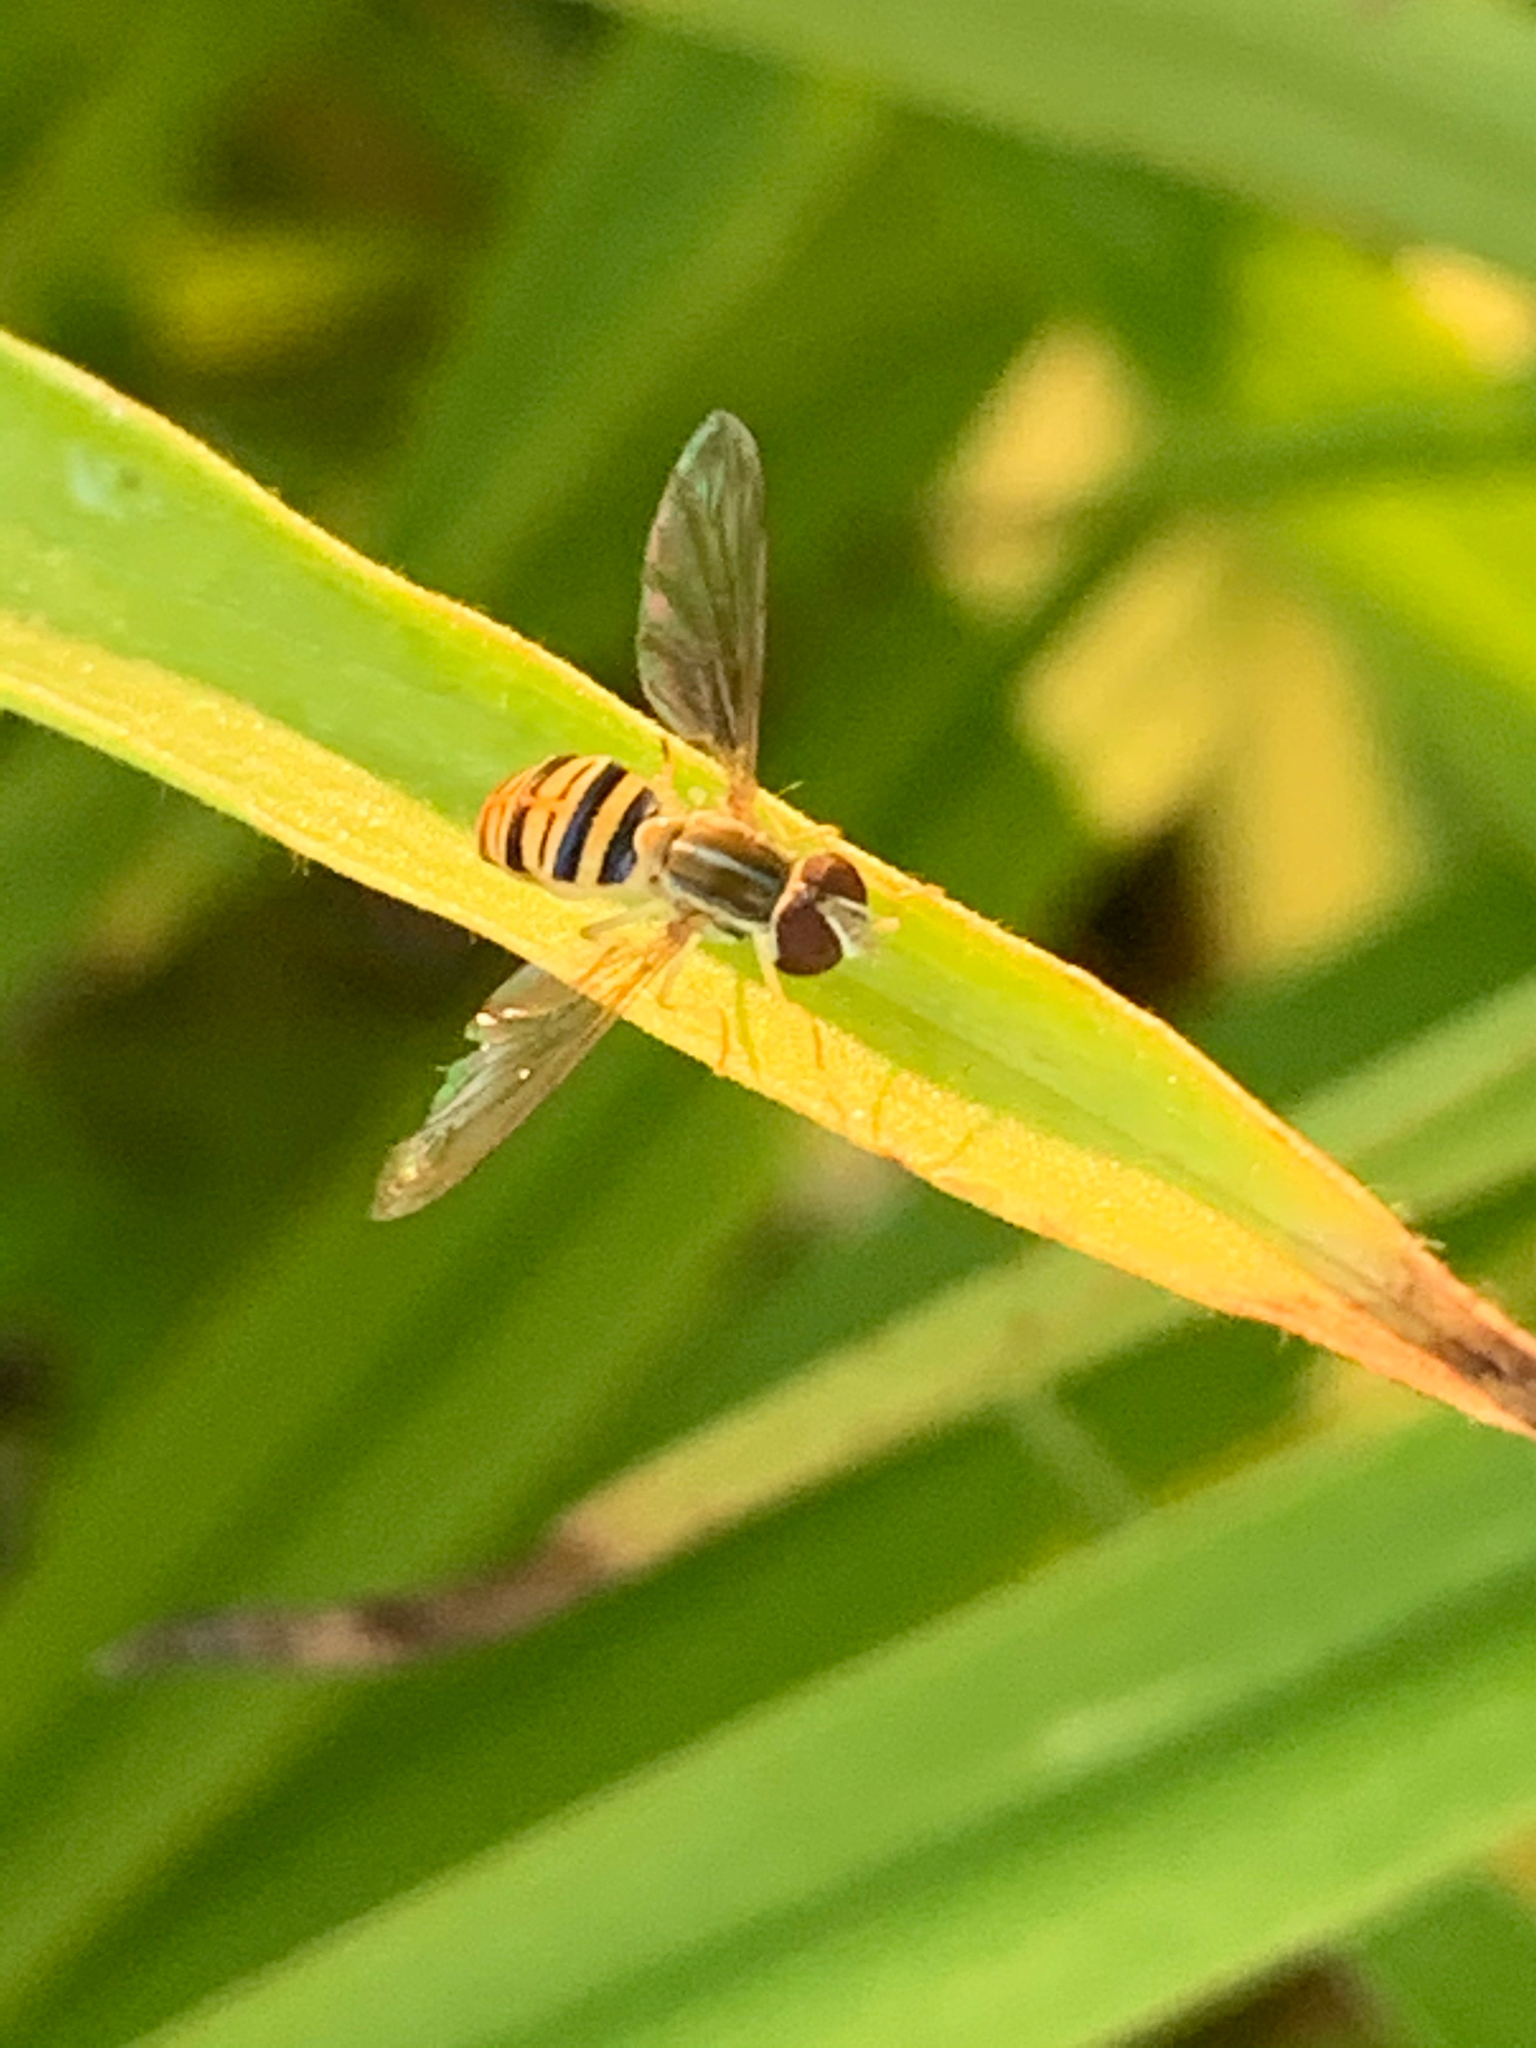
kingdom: Animalia
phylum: Arthropoda
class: Insecta
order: Diptera
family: Syrphidae
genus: Toxomerus
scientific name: Toxomerus politus
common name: Maize calligrapher
